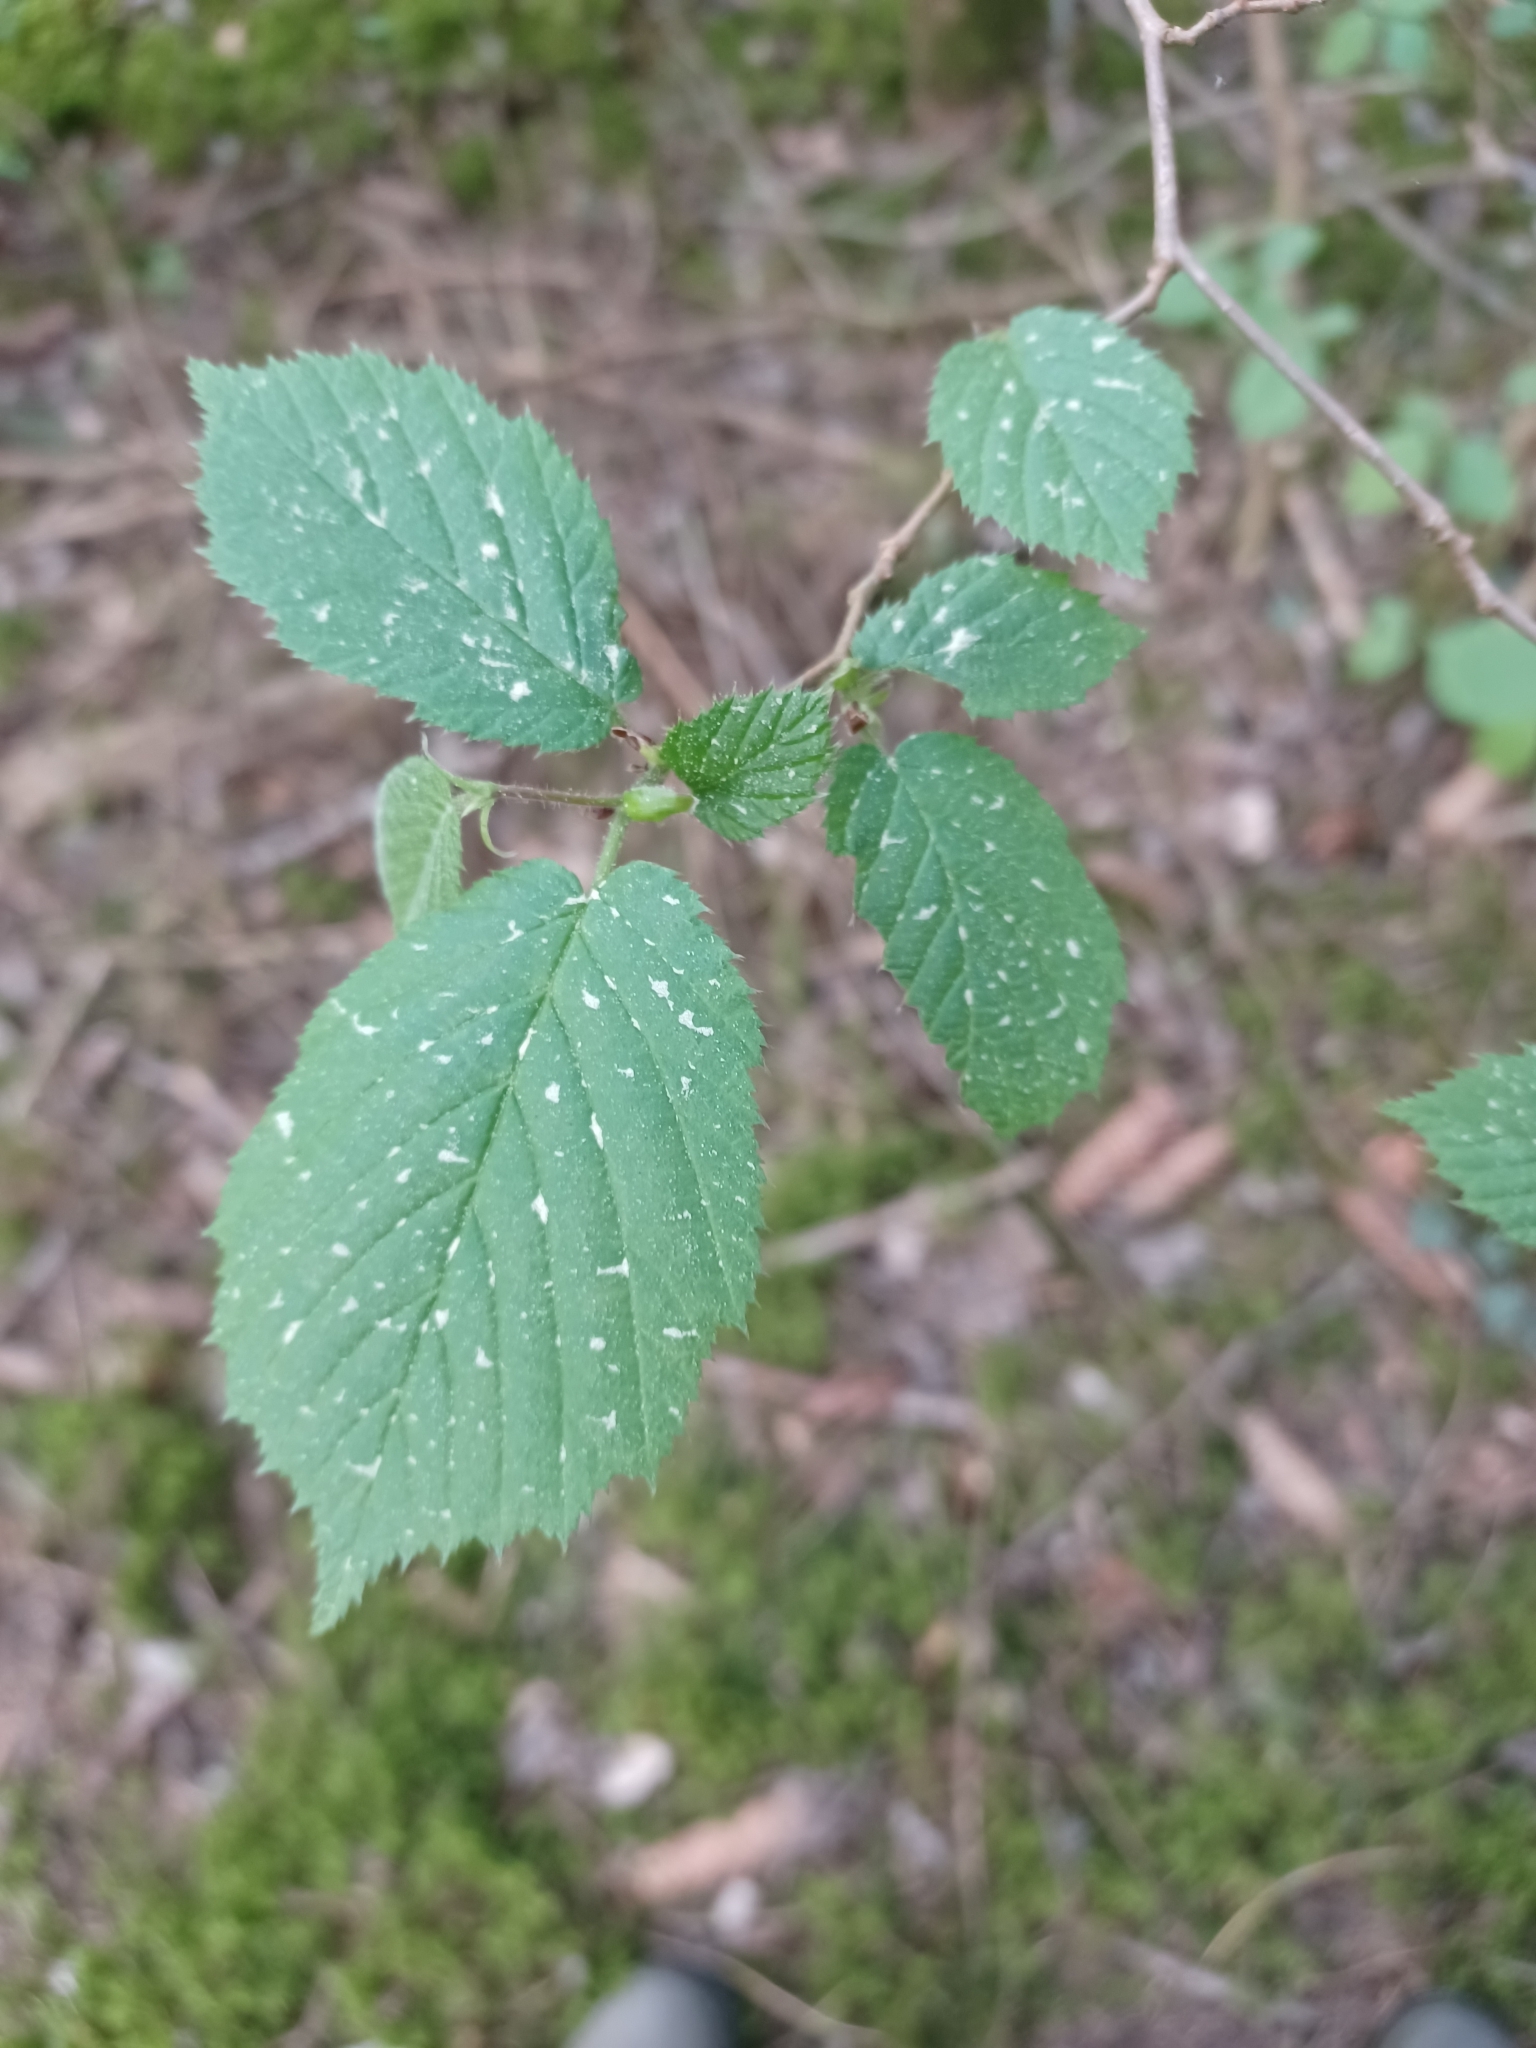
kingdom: Plantae
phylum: Tracheophyta
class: Magnoliopsida
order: Fagales
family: Betulaceae
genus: Corylus
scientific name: Corylus avellana
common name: European hazel
